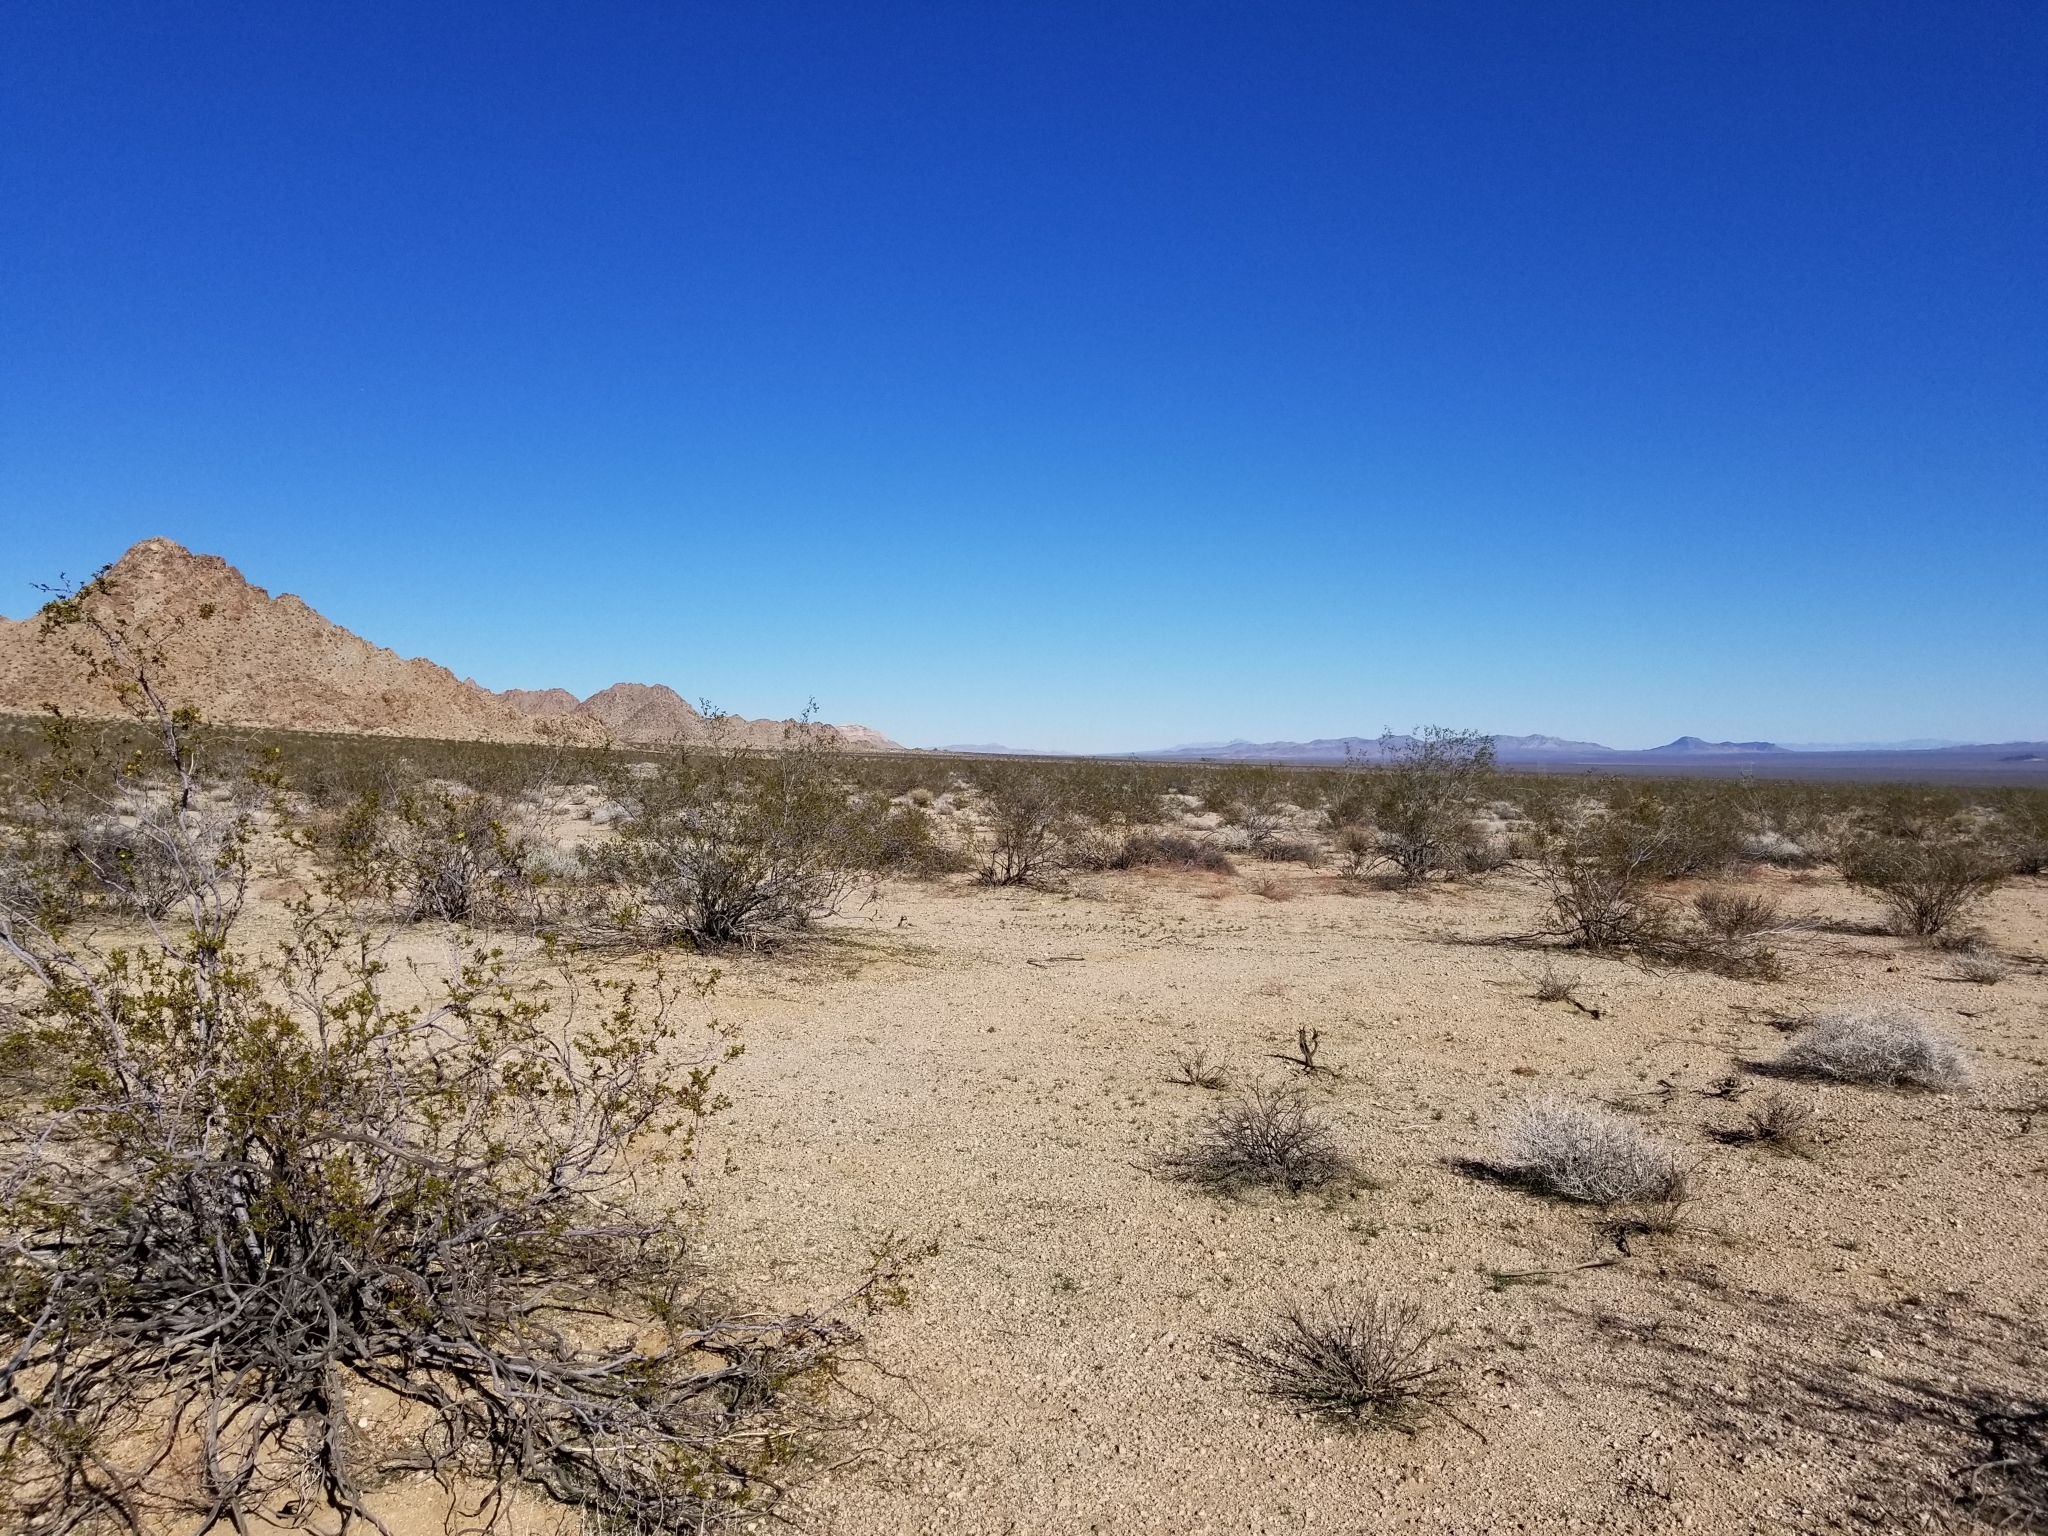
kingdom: Plantae
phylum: Tracheophyta
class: Magnoliopsida
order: Zygophyllales
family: Zygophyllaceae
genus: Larrea
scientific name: Larrea tridentata
